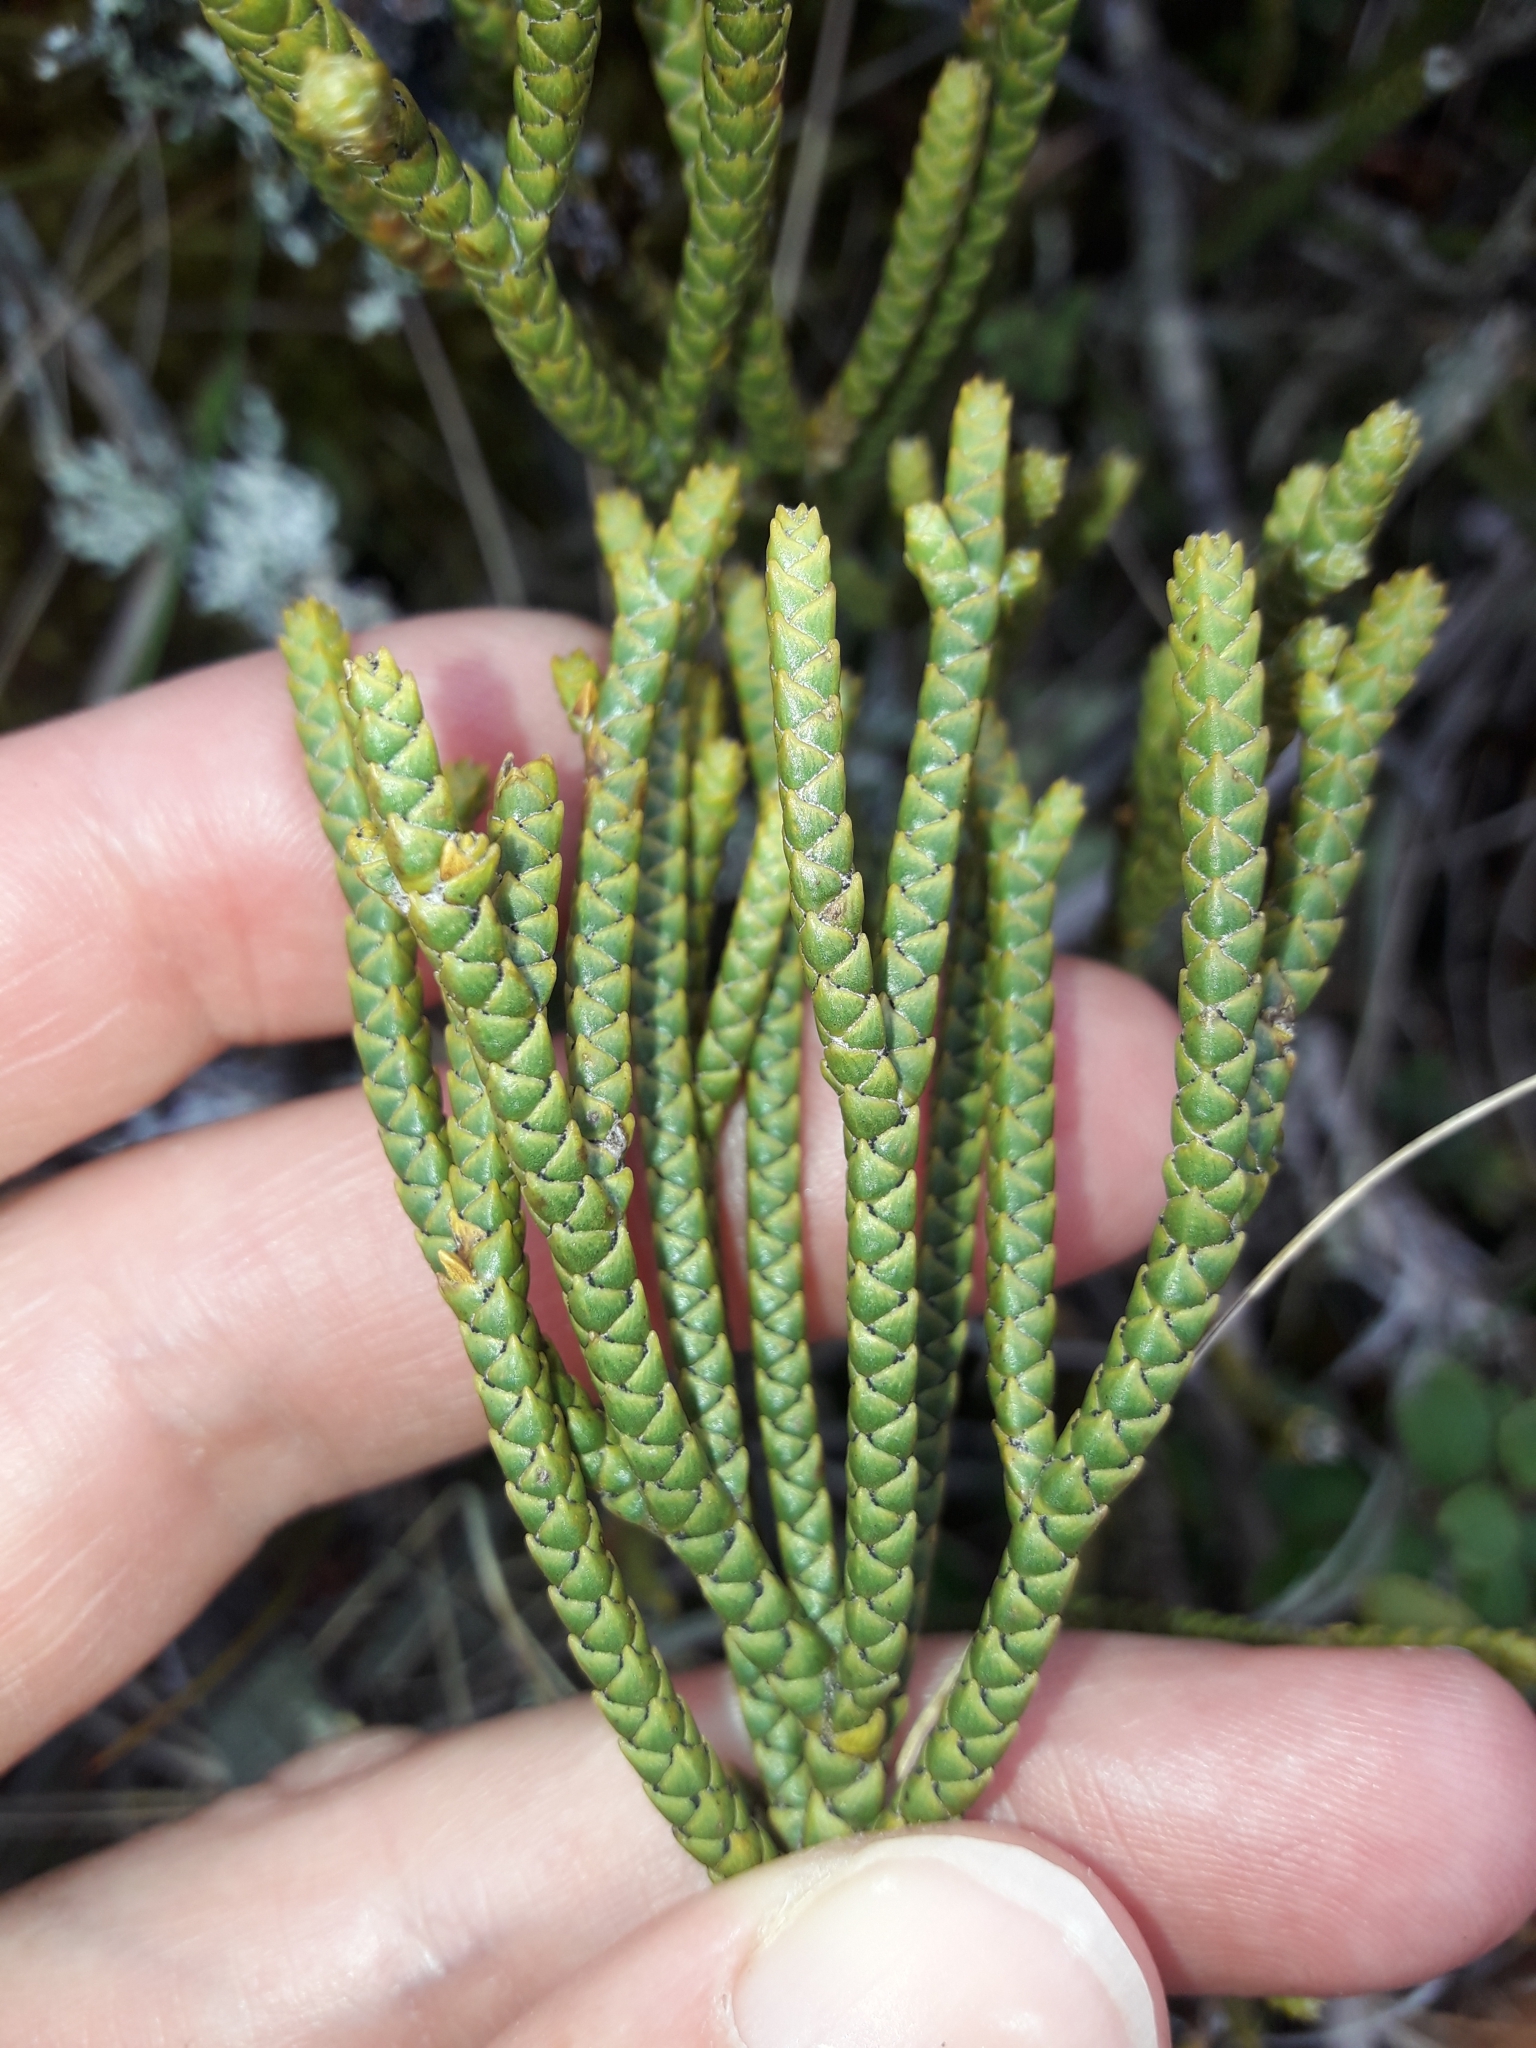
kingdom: Plantae
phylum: Tracheophyta
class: Magnoliopsida
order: Lamiales
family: Plantaginaceae
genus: Veronica
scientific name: Veronica lycopodioides
